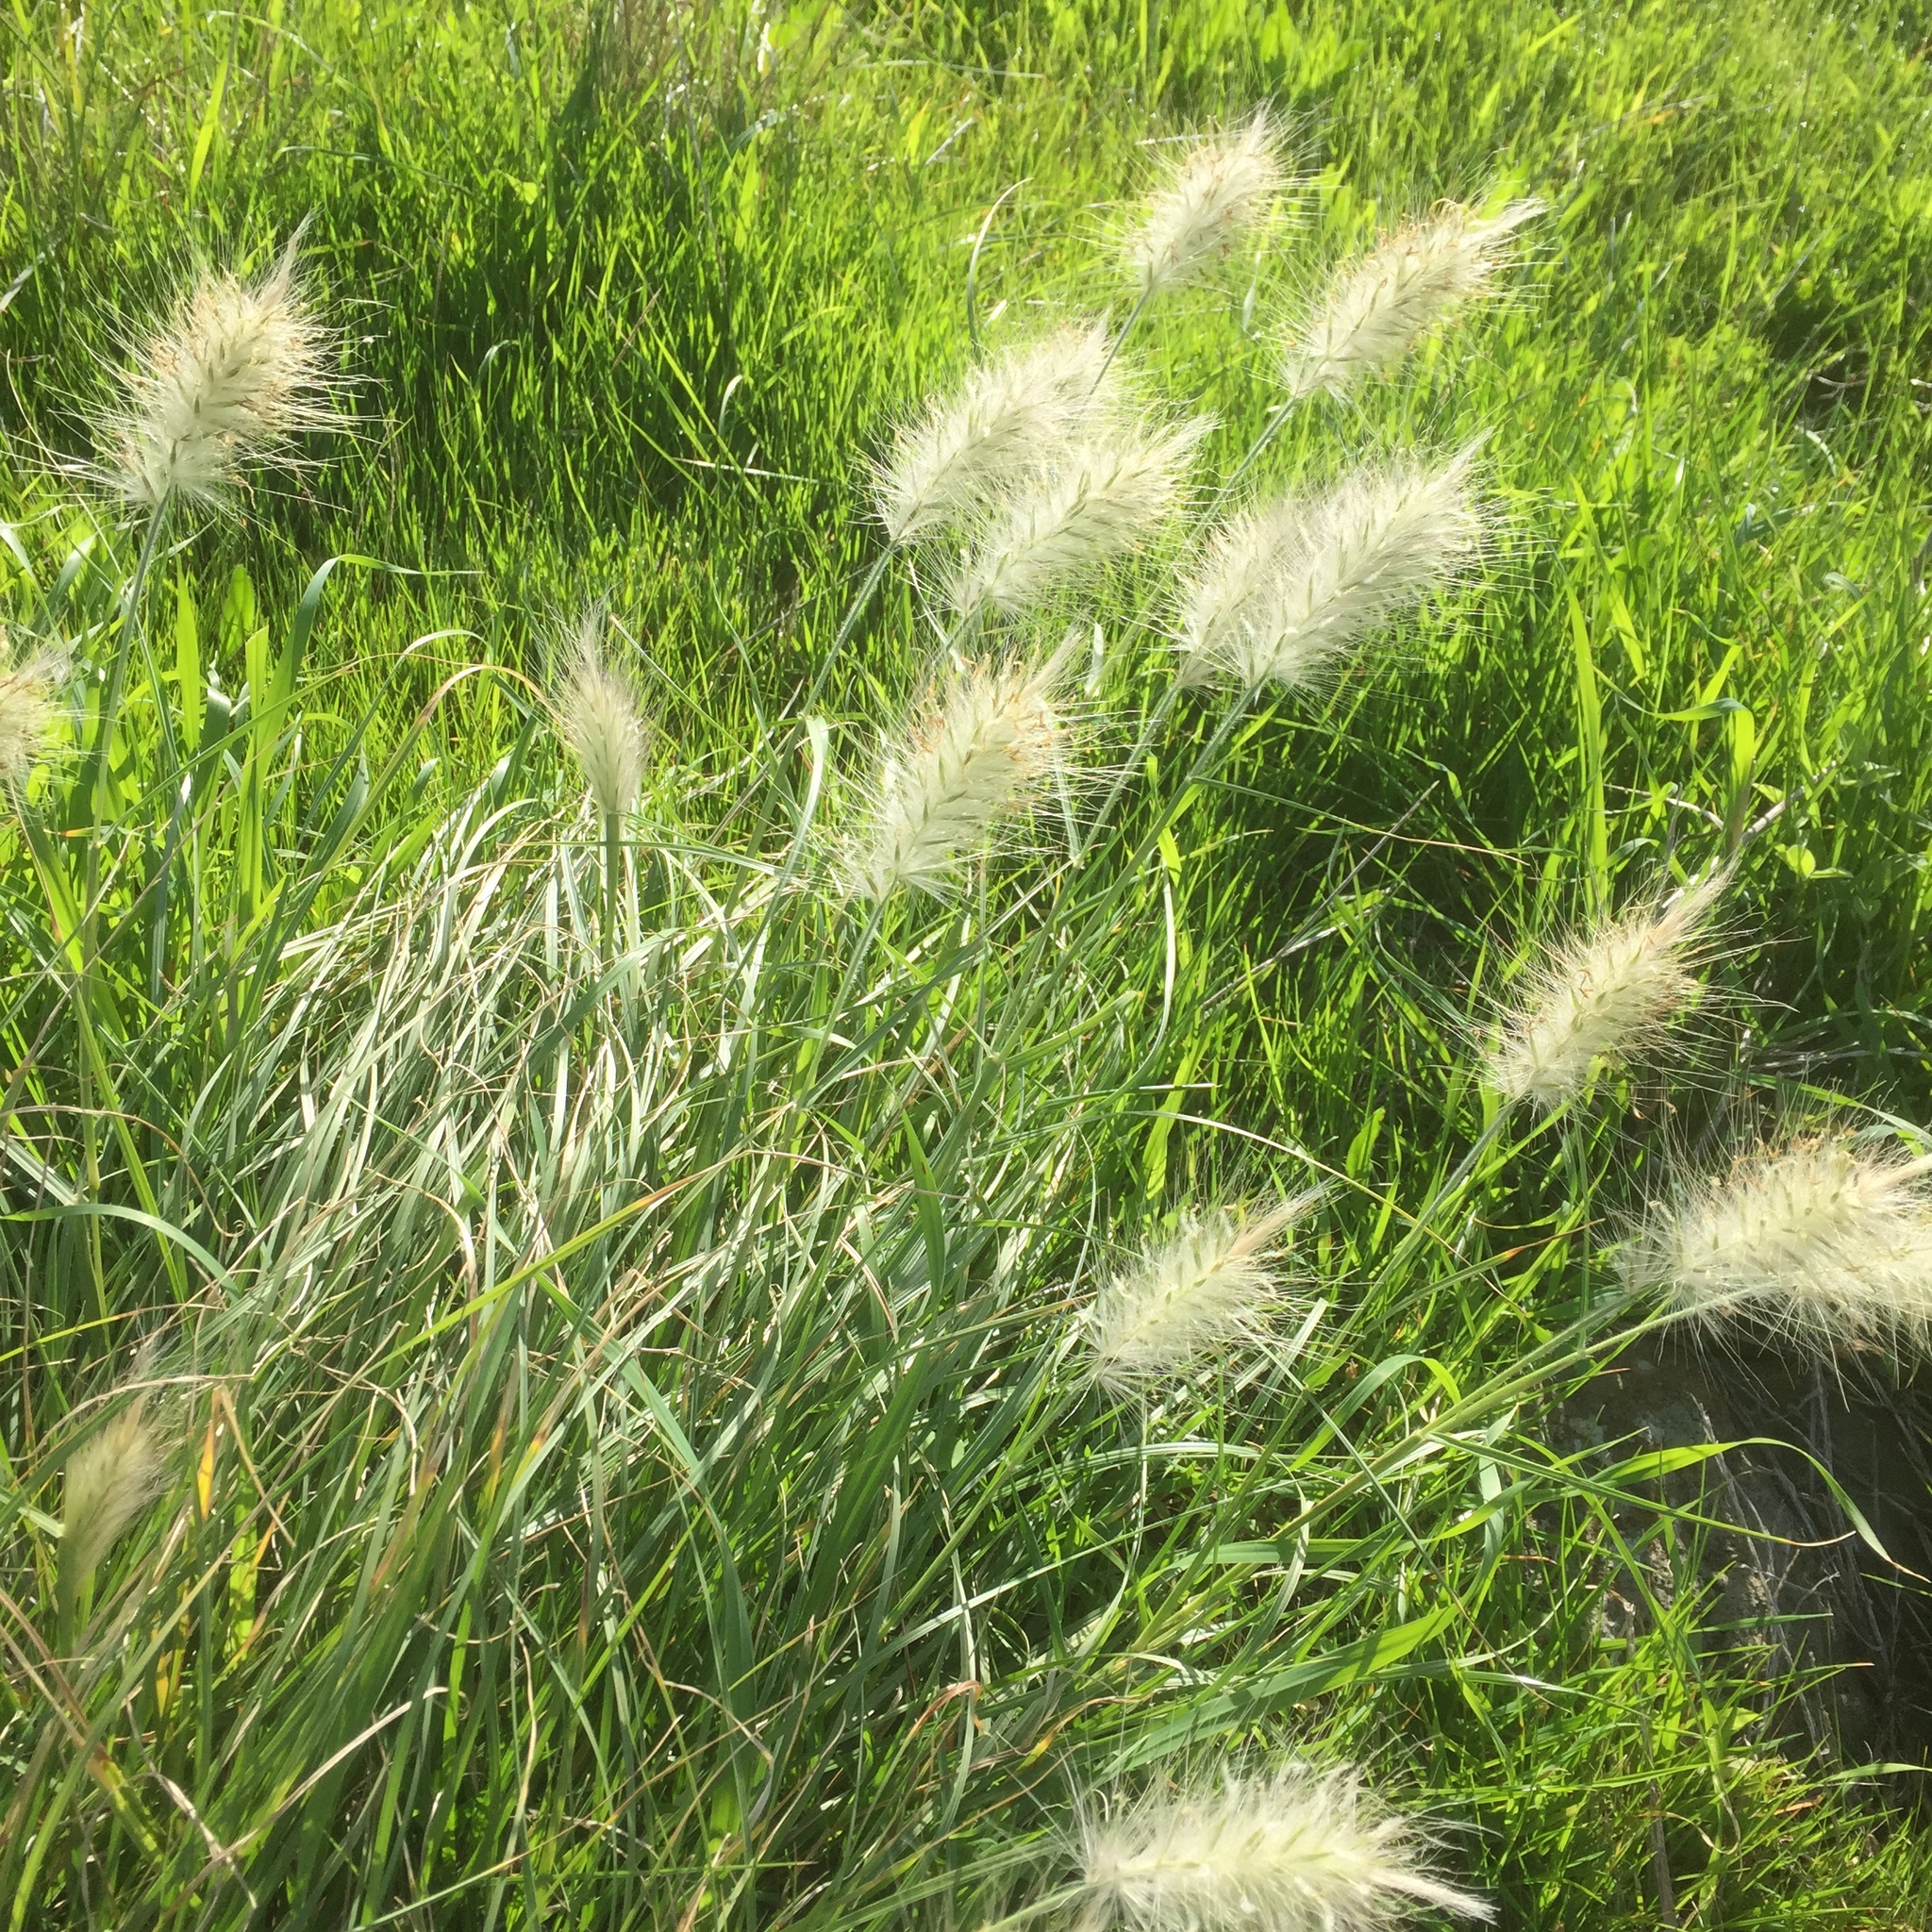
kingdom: Plantae
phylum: Tracheophyta
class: Liliopsida
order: Poales
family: Poaceae
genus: Cenchrus
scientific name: Cenchrus longisetus
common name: Feathertop
